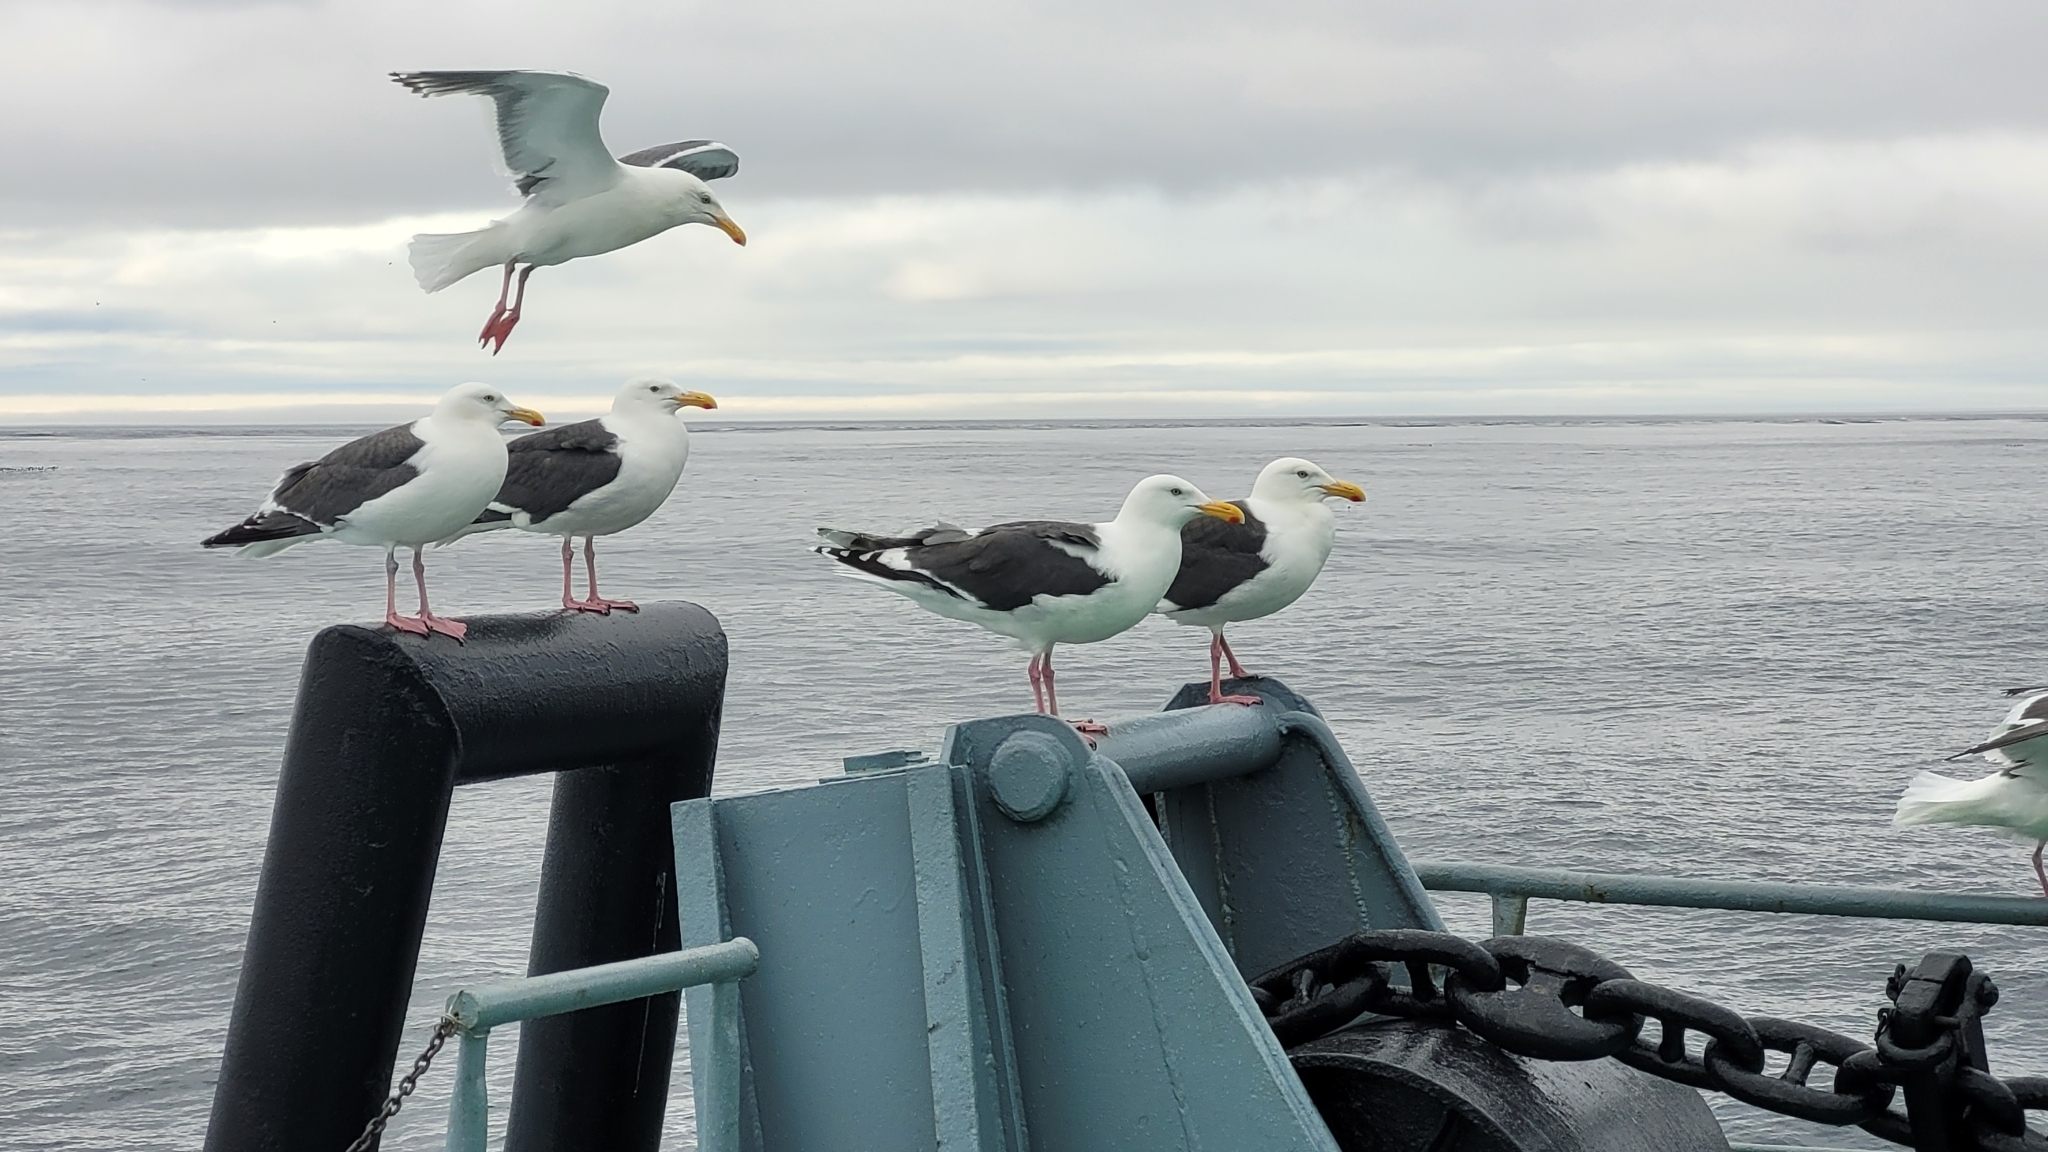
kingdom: Animalia
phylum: Chordata
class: Aves
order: Charadriiformes
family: Laridae
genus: Larus
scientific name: Larus schistisagus
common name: Slaty-backed gull
